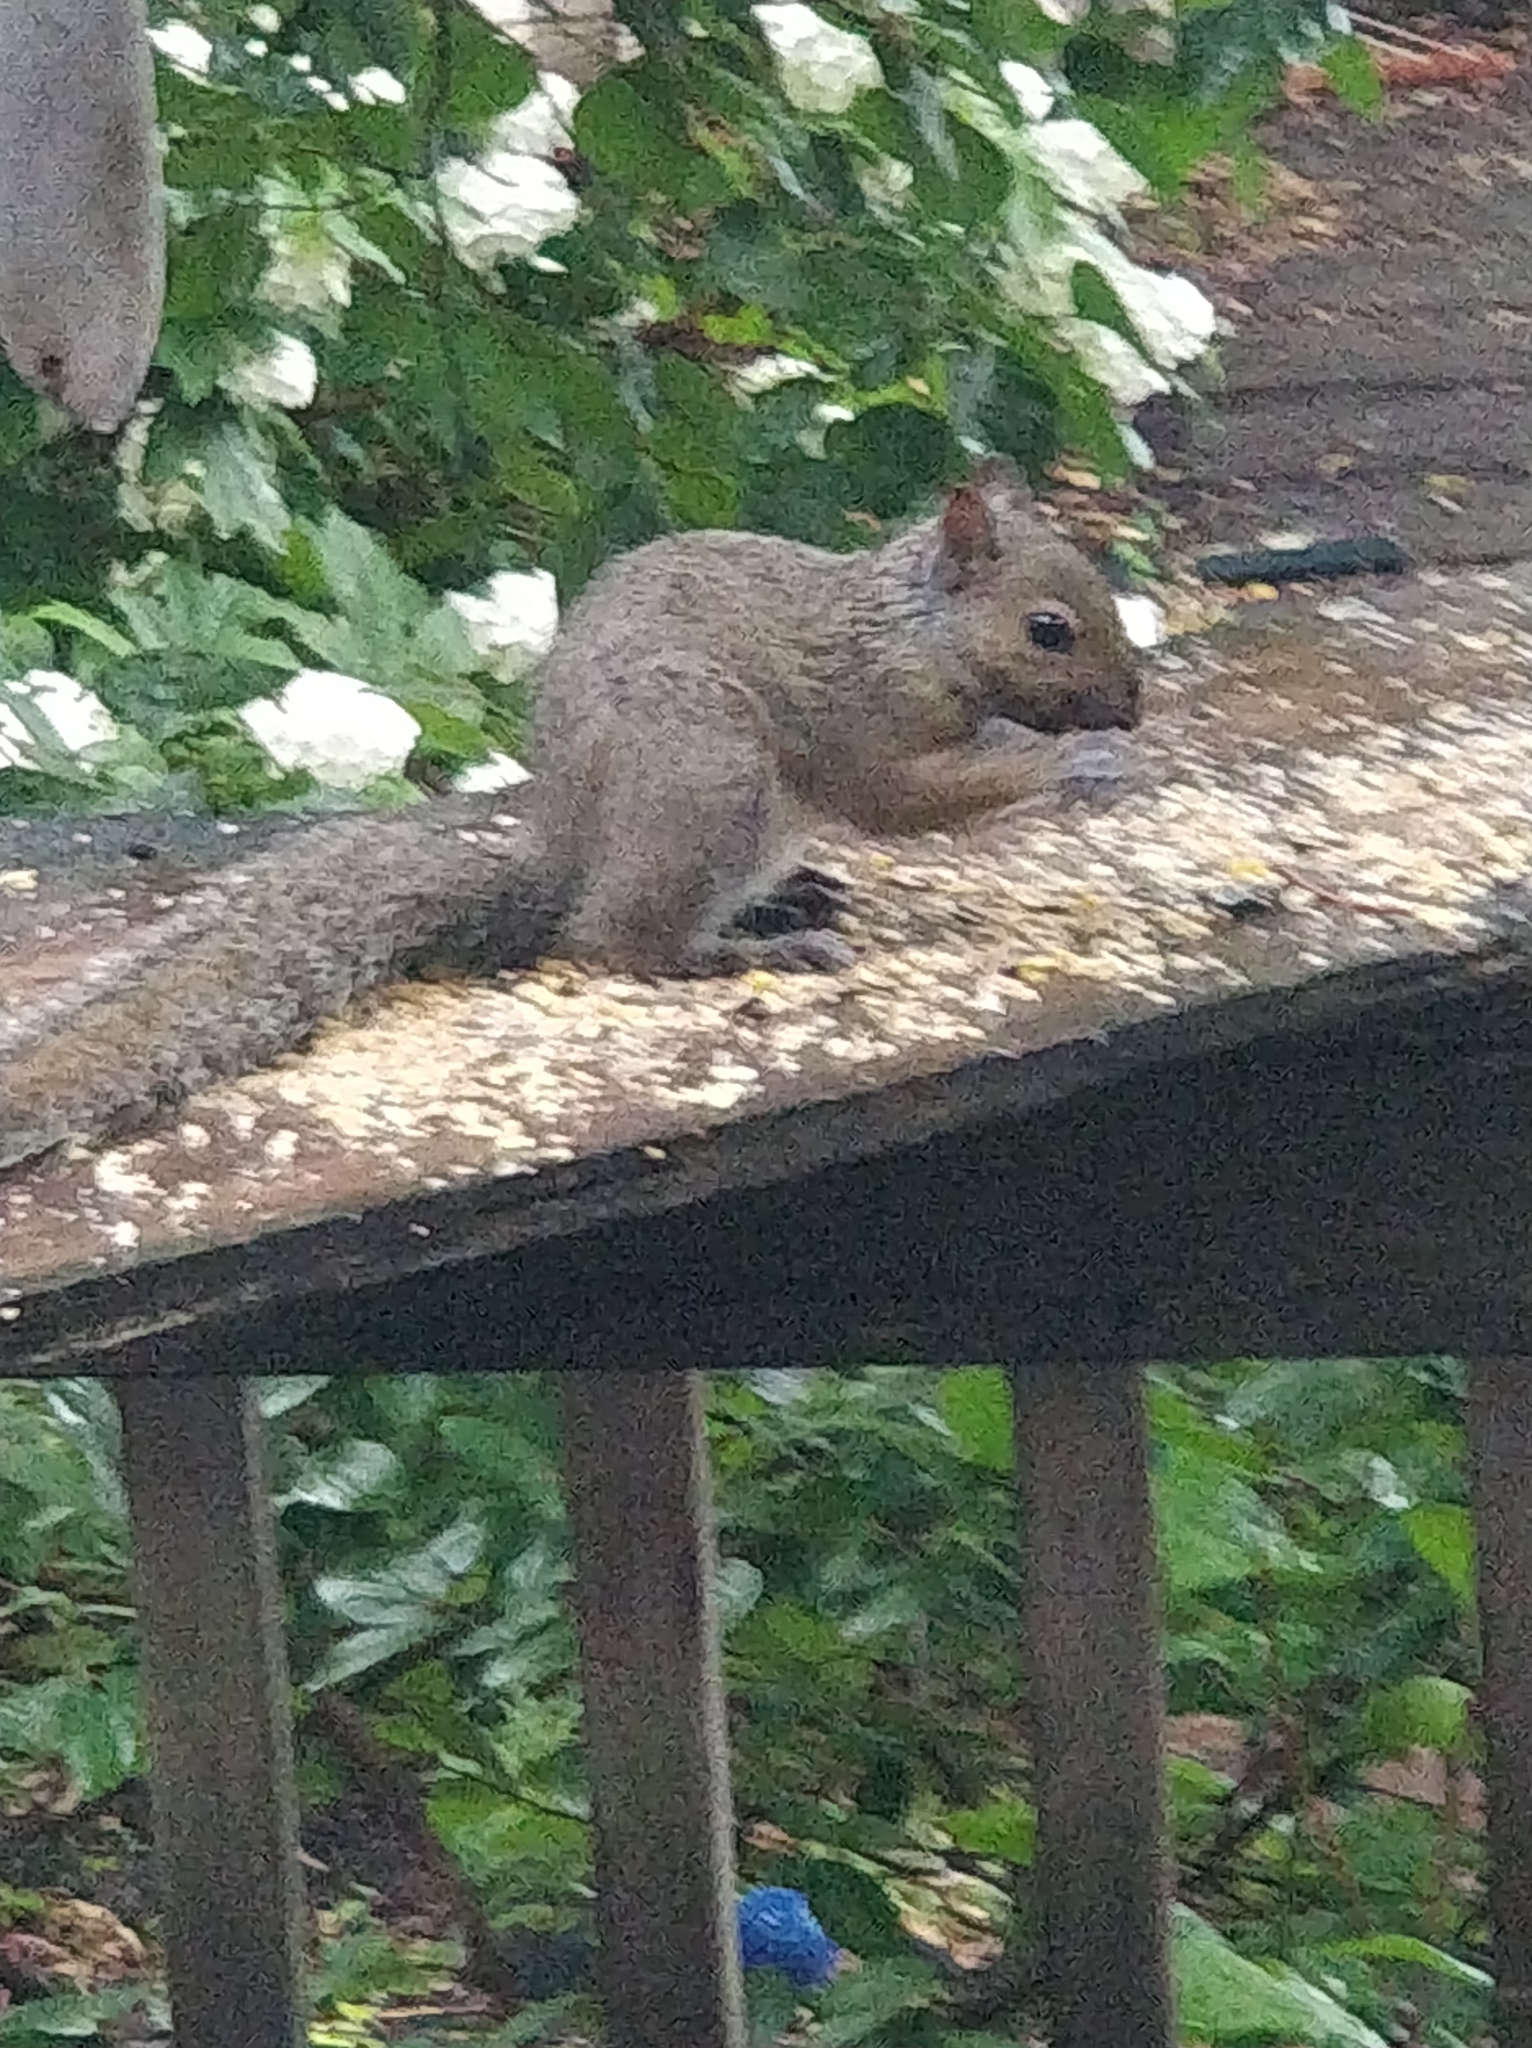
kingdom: Animalia
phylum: Chordata
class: Mammalia
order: Rodentia
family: Sciuridae
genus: Sciurus
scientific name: Sciurus carolinensis
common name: Eastern gray squirrel
